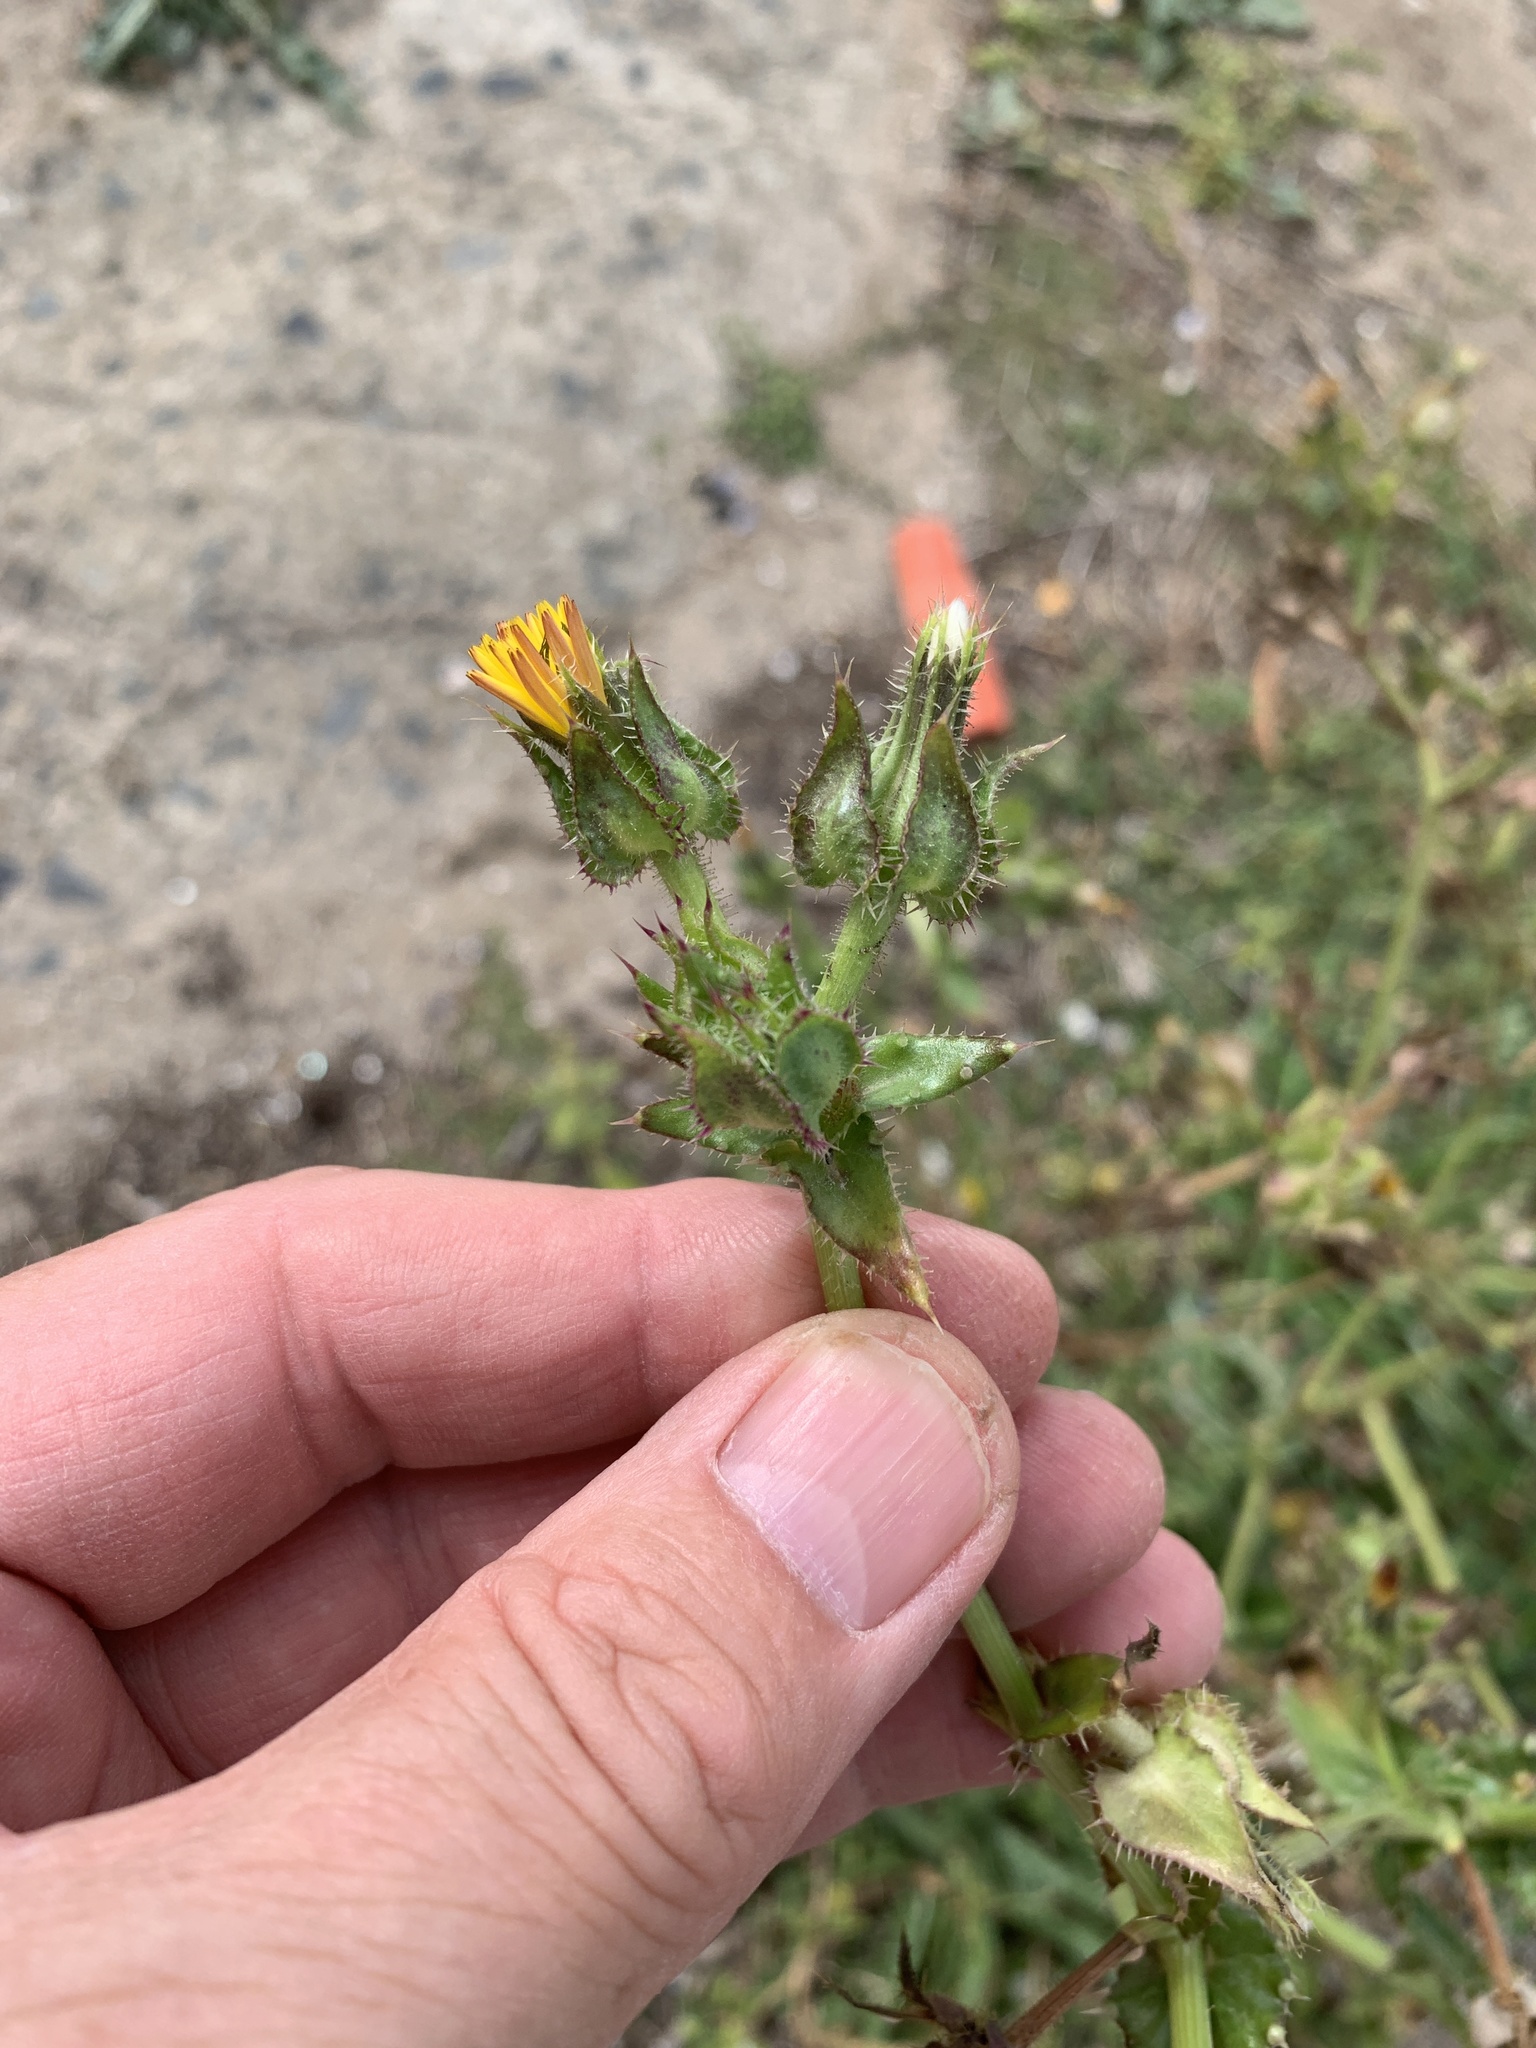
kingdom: Plantae
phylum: Tracheophyta
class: Magnoliopsida
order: Asterales
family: Asteraceae
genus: Helminthotheca
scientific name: Helminthotheca echioides
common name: Ox-tongue
